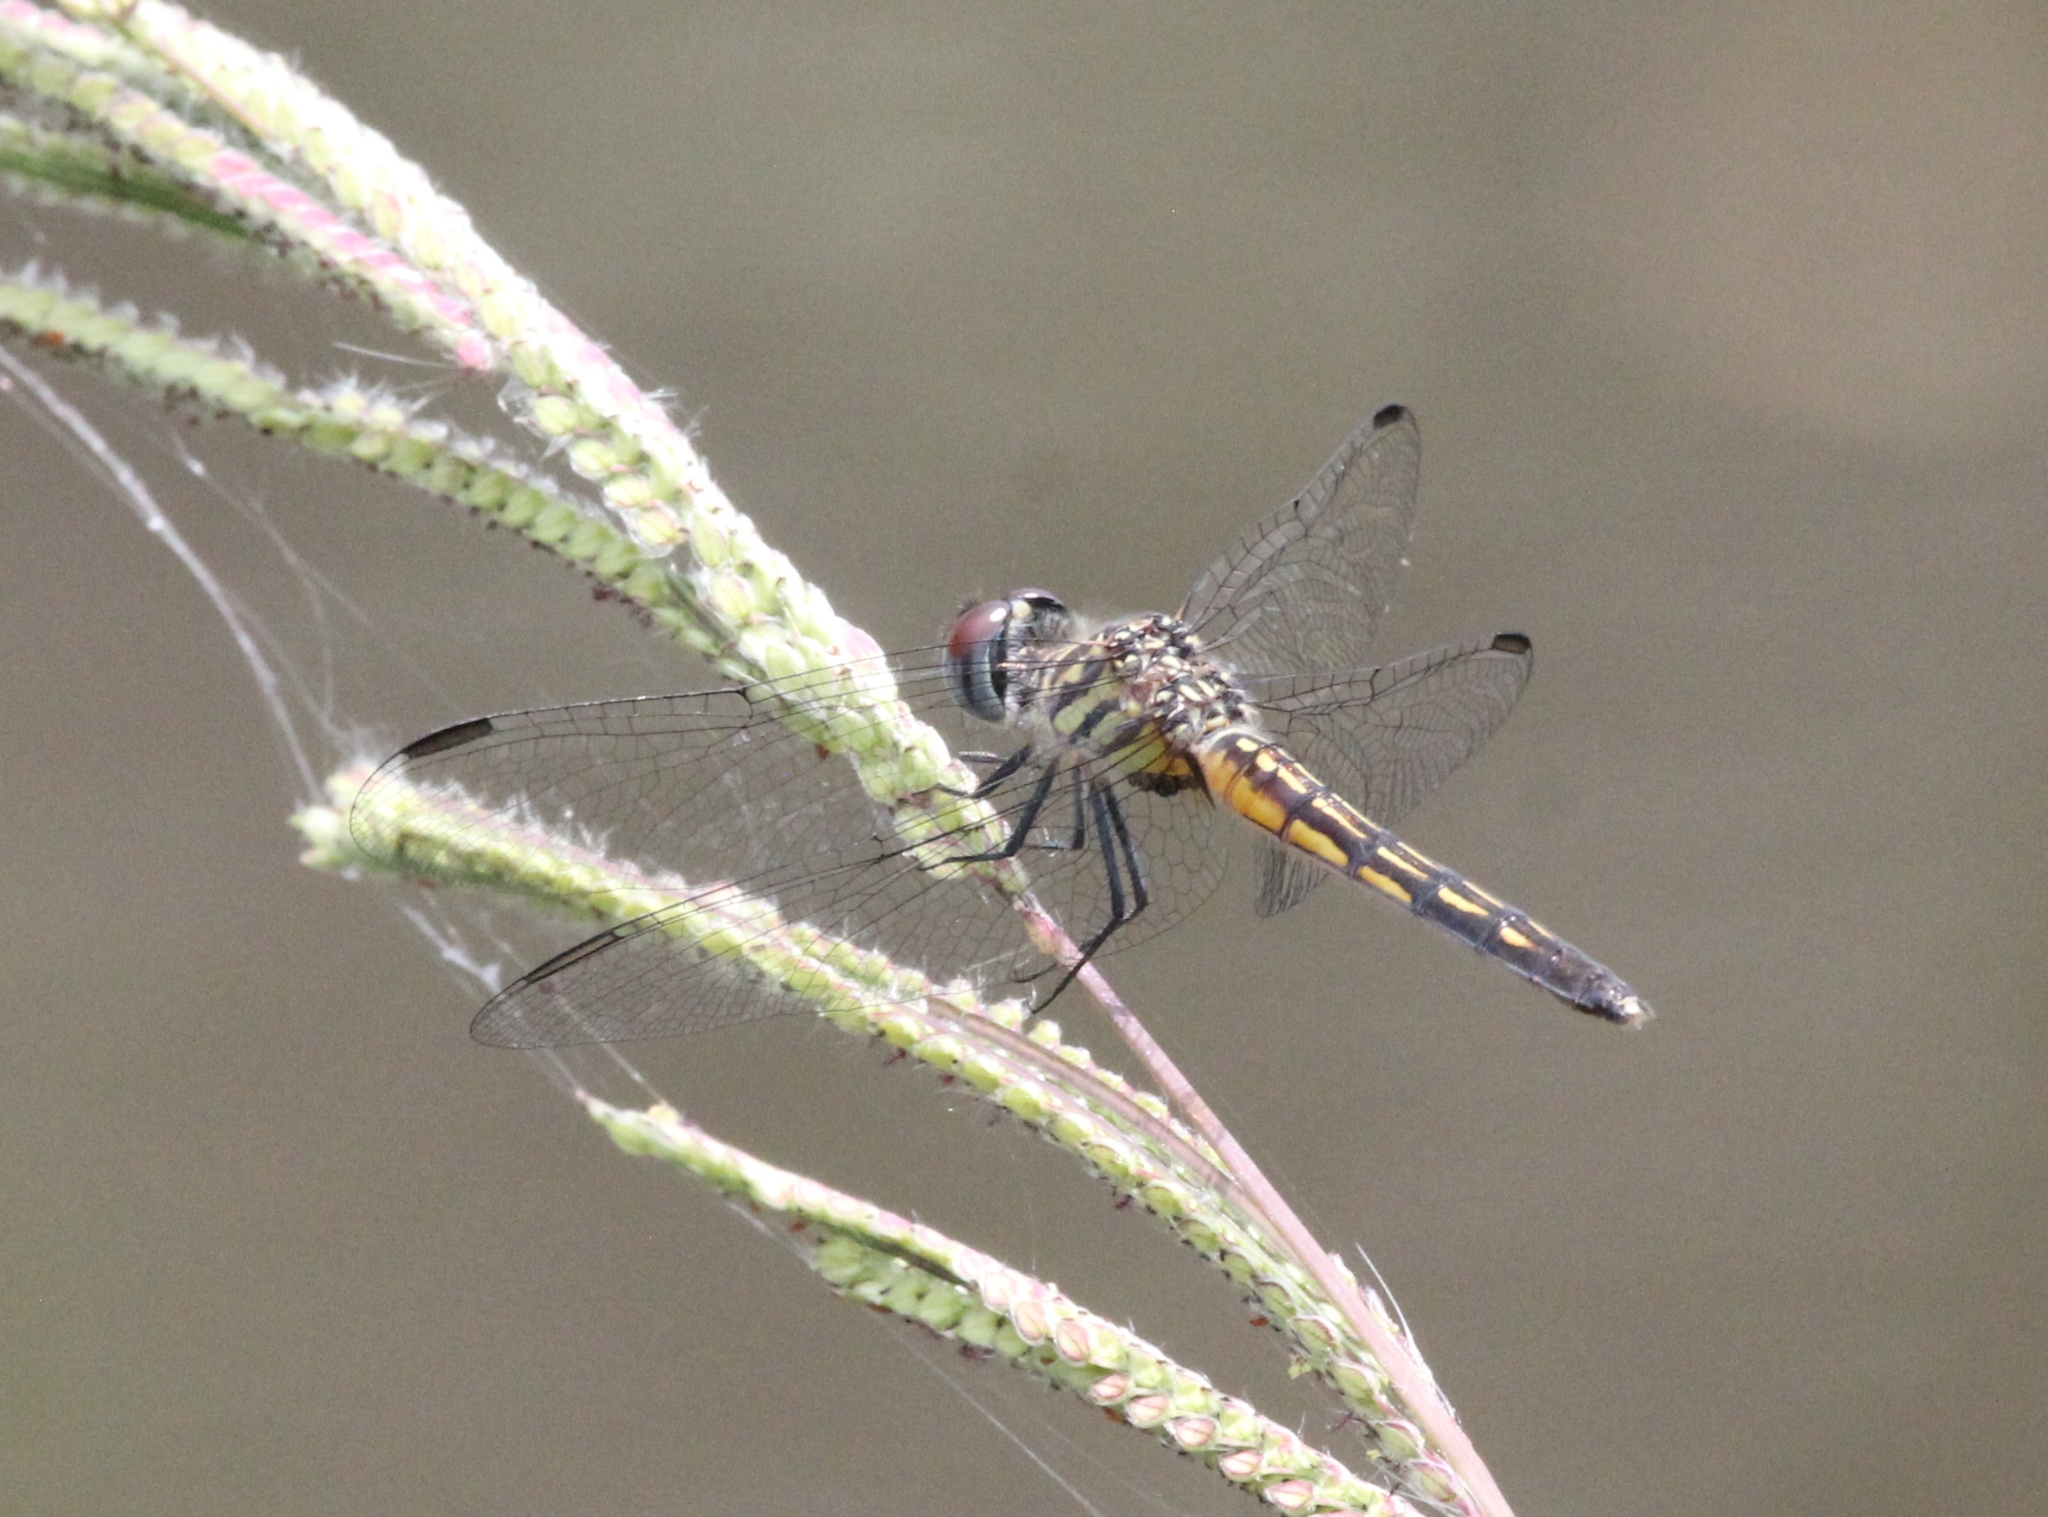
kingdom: Animalia
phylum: Arthropoda
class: Insecta
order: Odonata
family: Libellulidae
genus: Pachydiplax
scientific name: Pachydiplax longipennis
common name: Blue dasher
